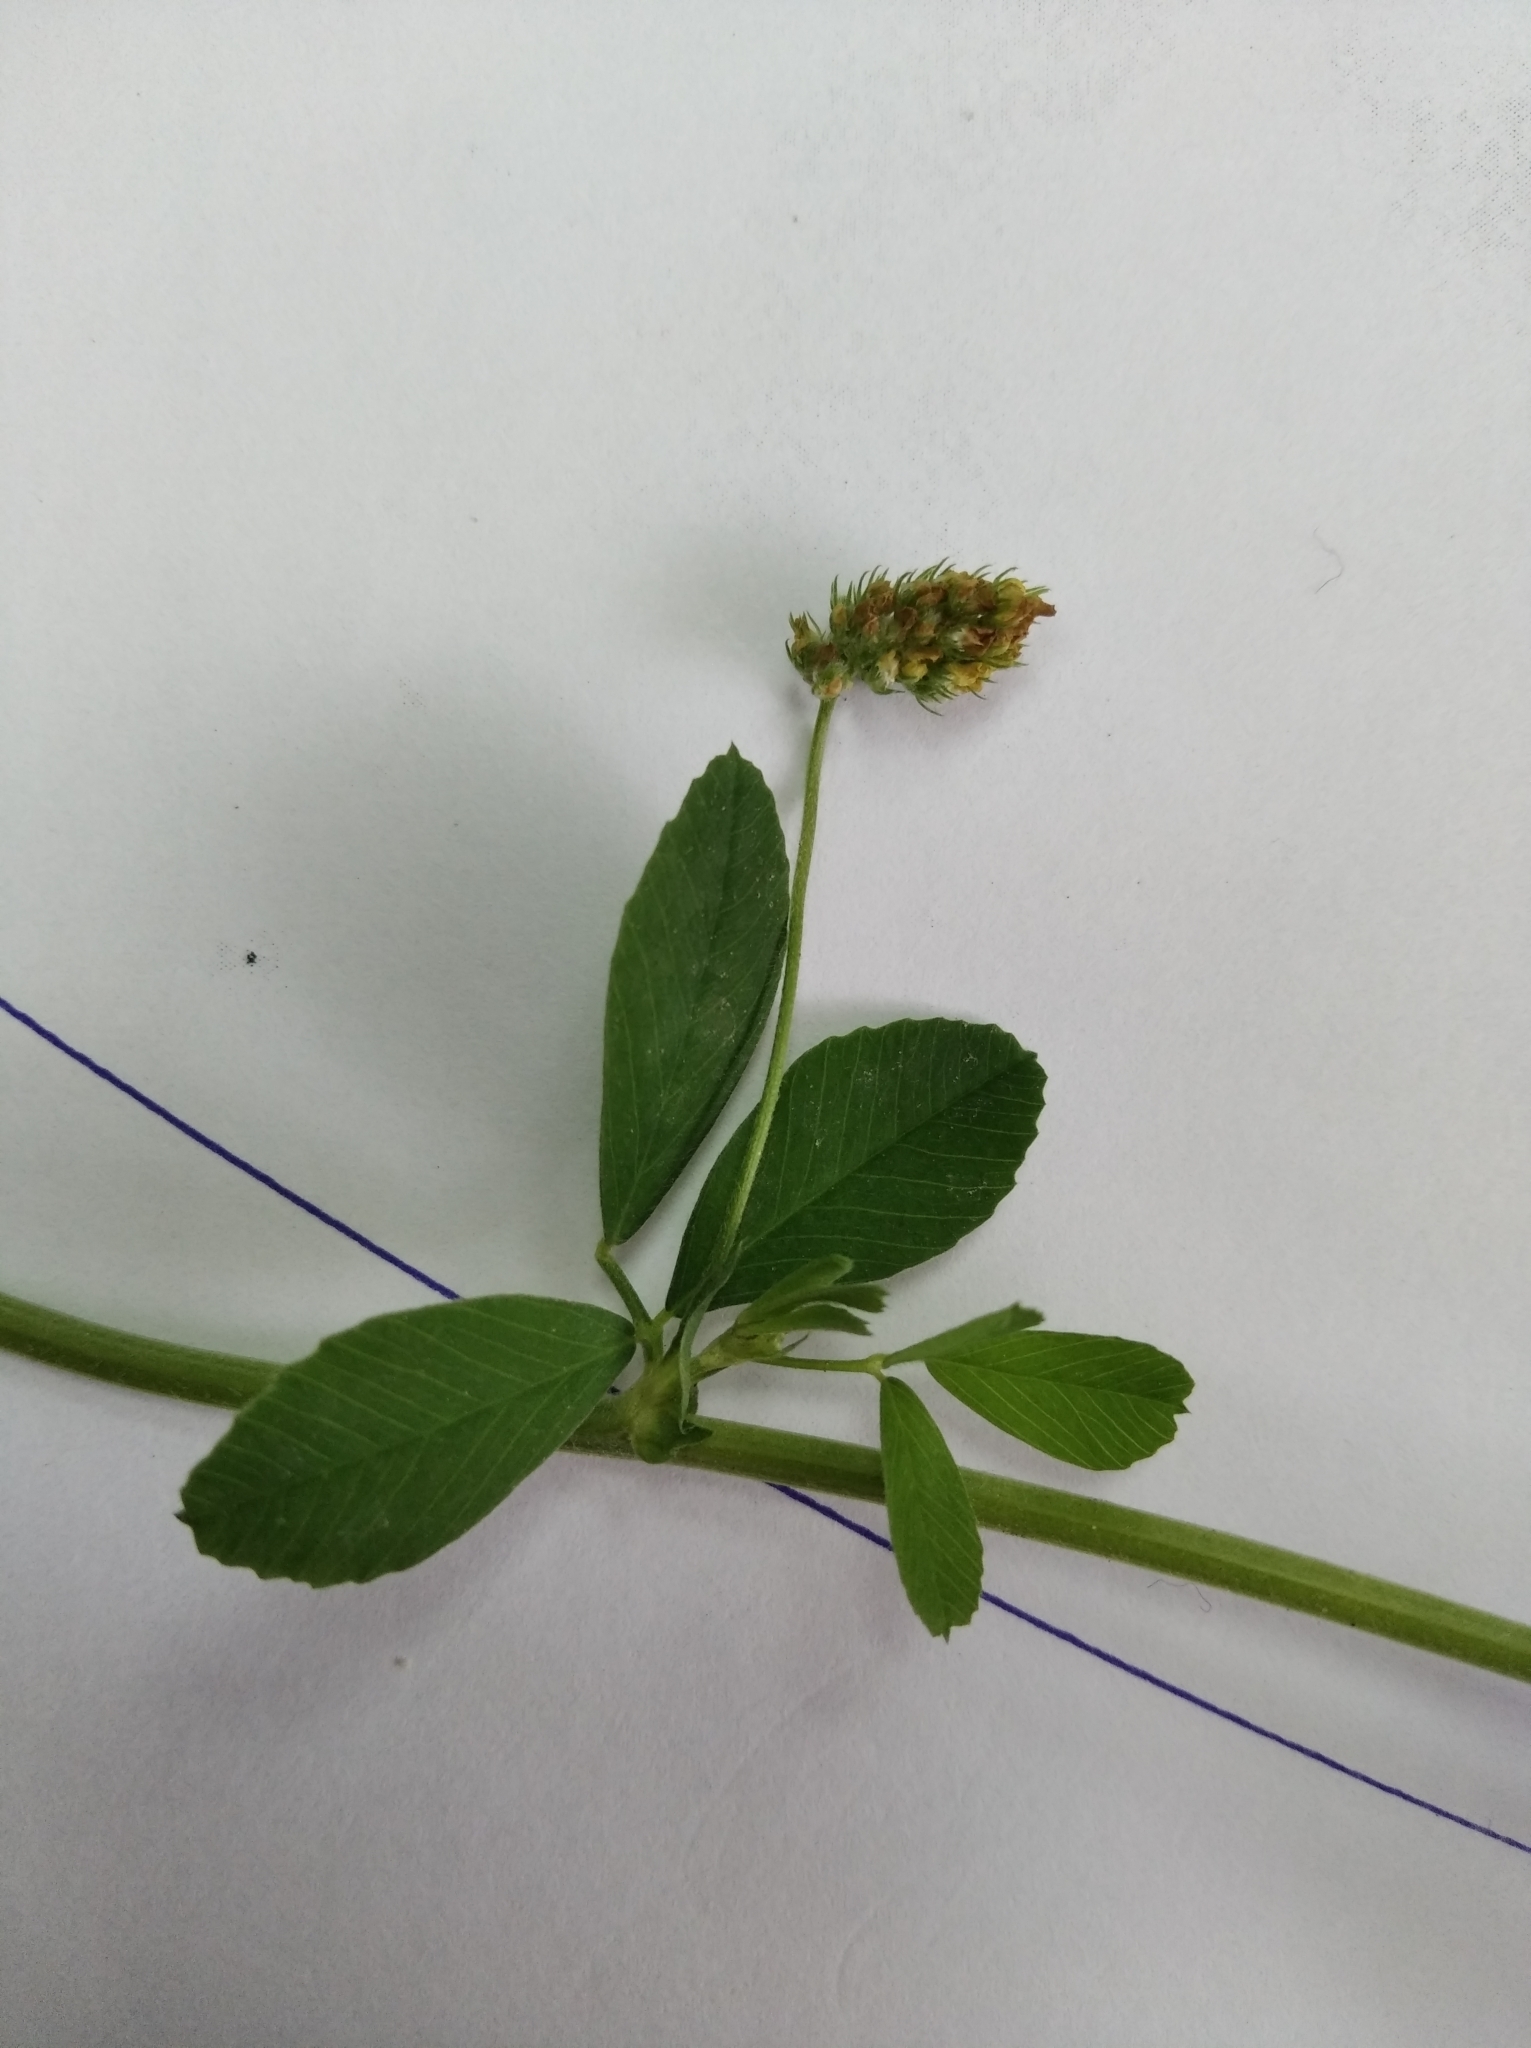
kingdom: Plantae
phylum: Tracheophyta
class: Magnoliopsida
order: Fabales
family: Fabaceae
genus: Medicago
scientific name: Medicago lupulina
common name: Black medick
